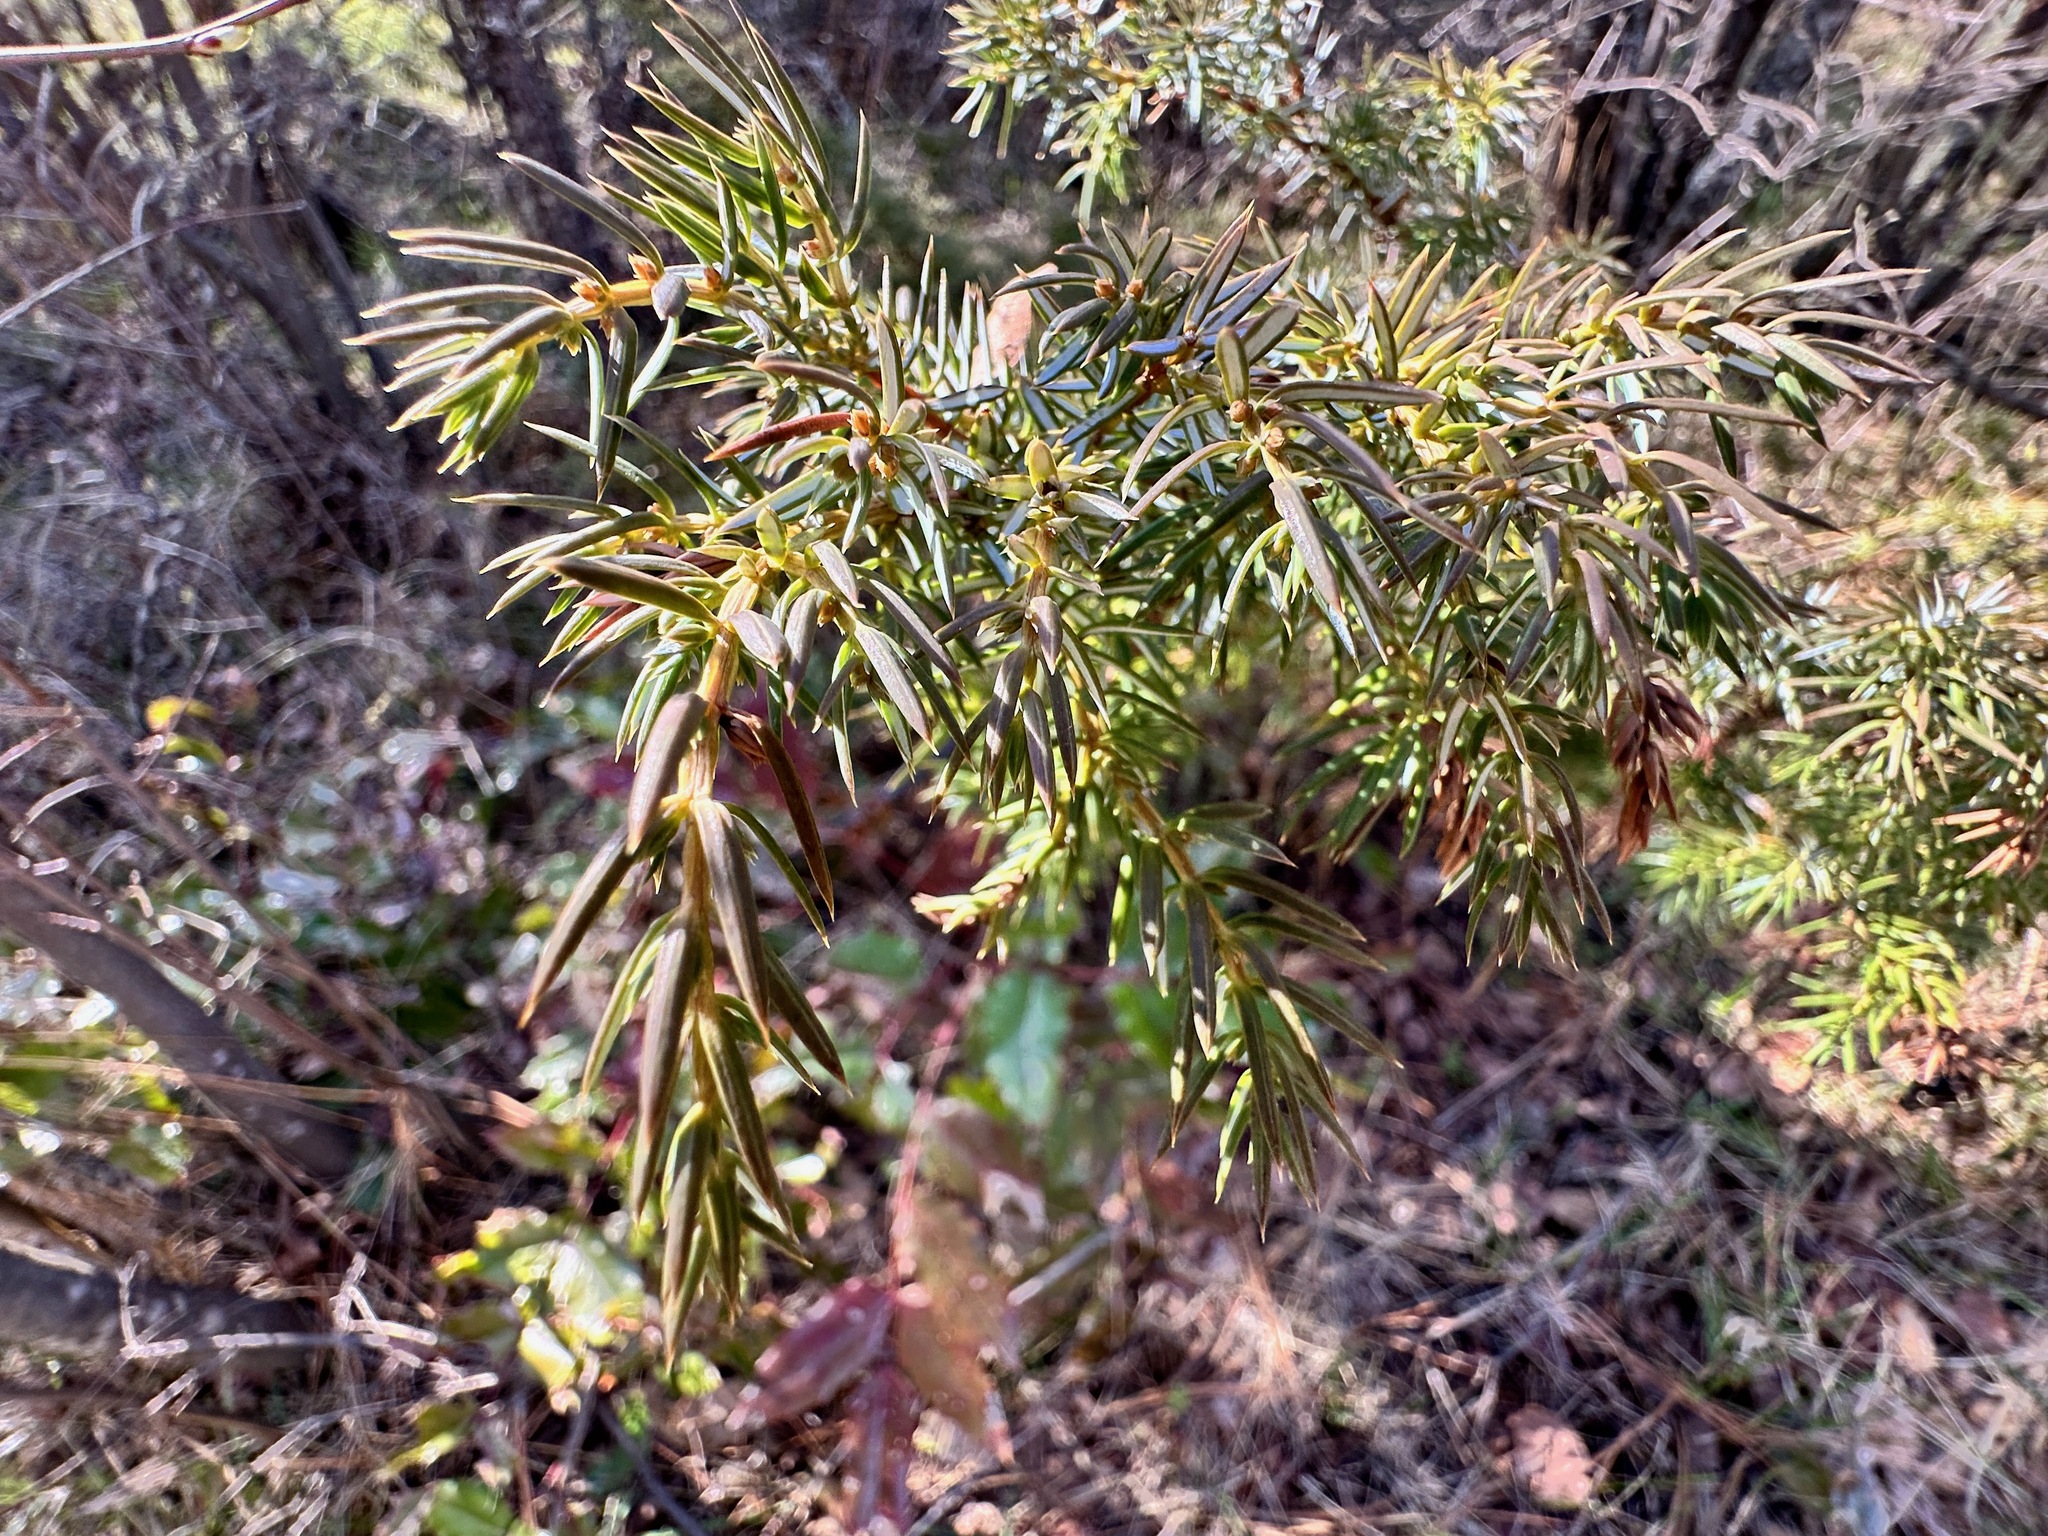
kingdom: Plantae
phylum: Tracheophyta
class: Pinopsida
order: Pinales
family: Cupressaceae
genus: Juniperus
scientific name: Juniperus communis
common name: Common juniper
